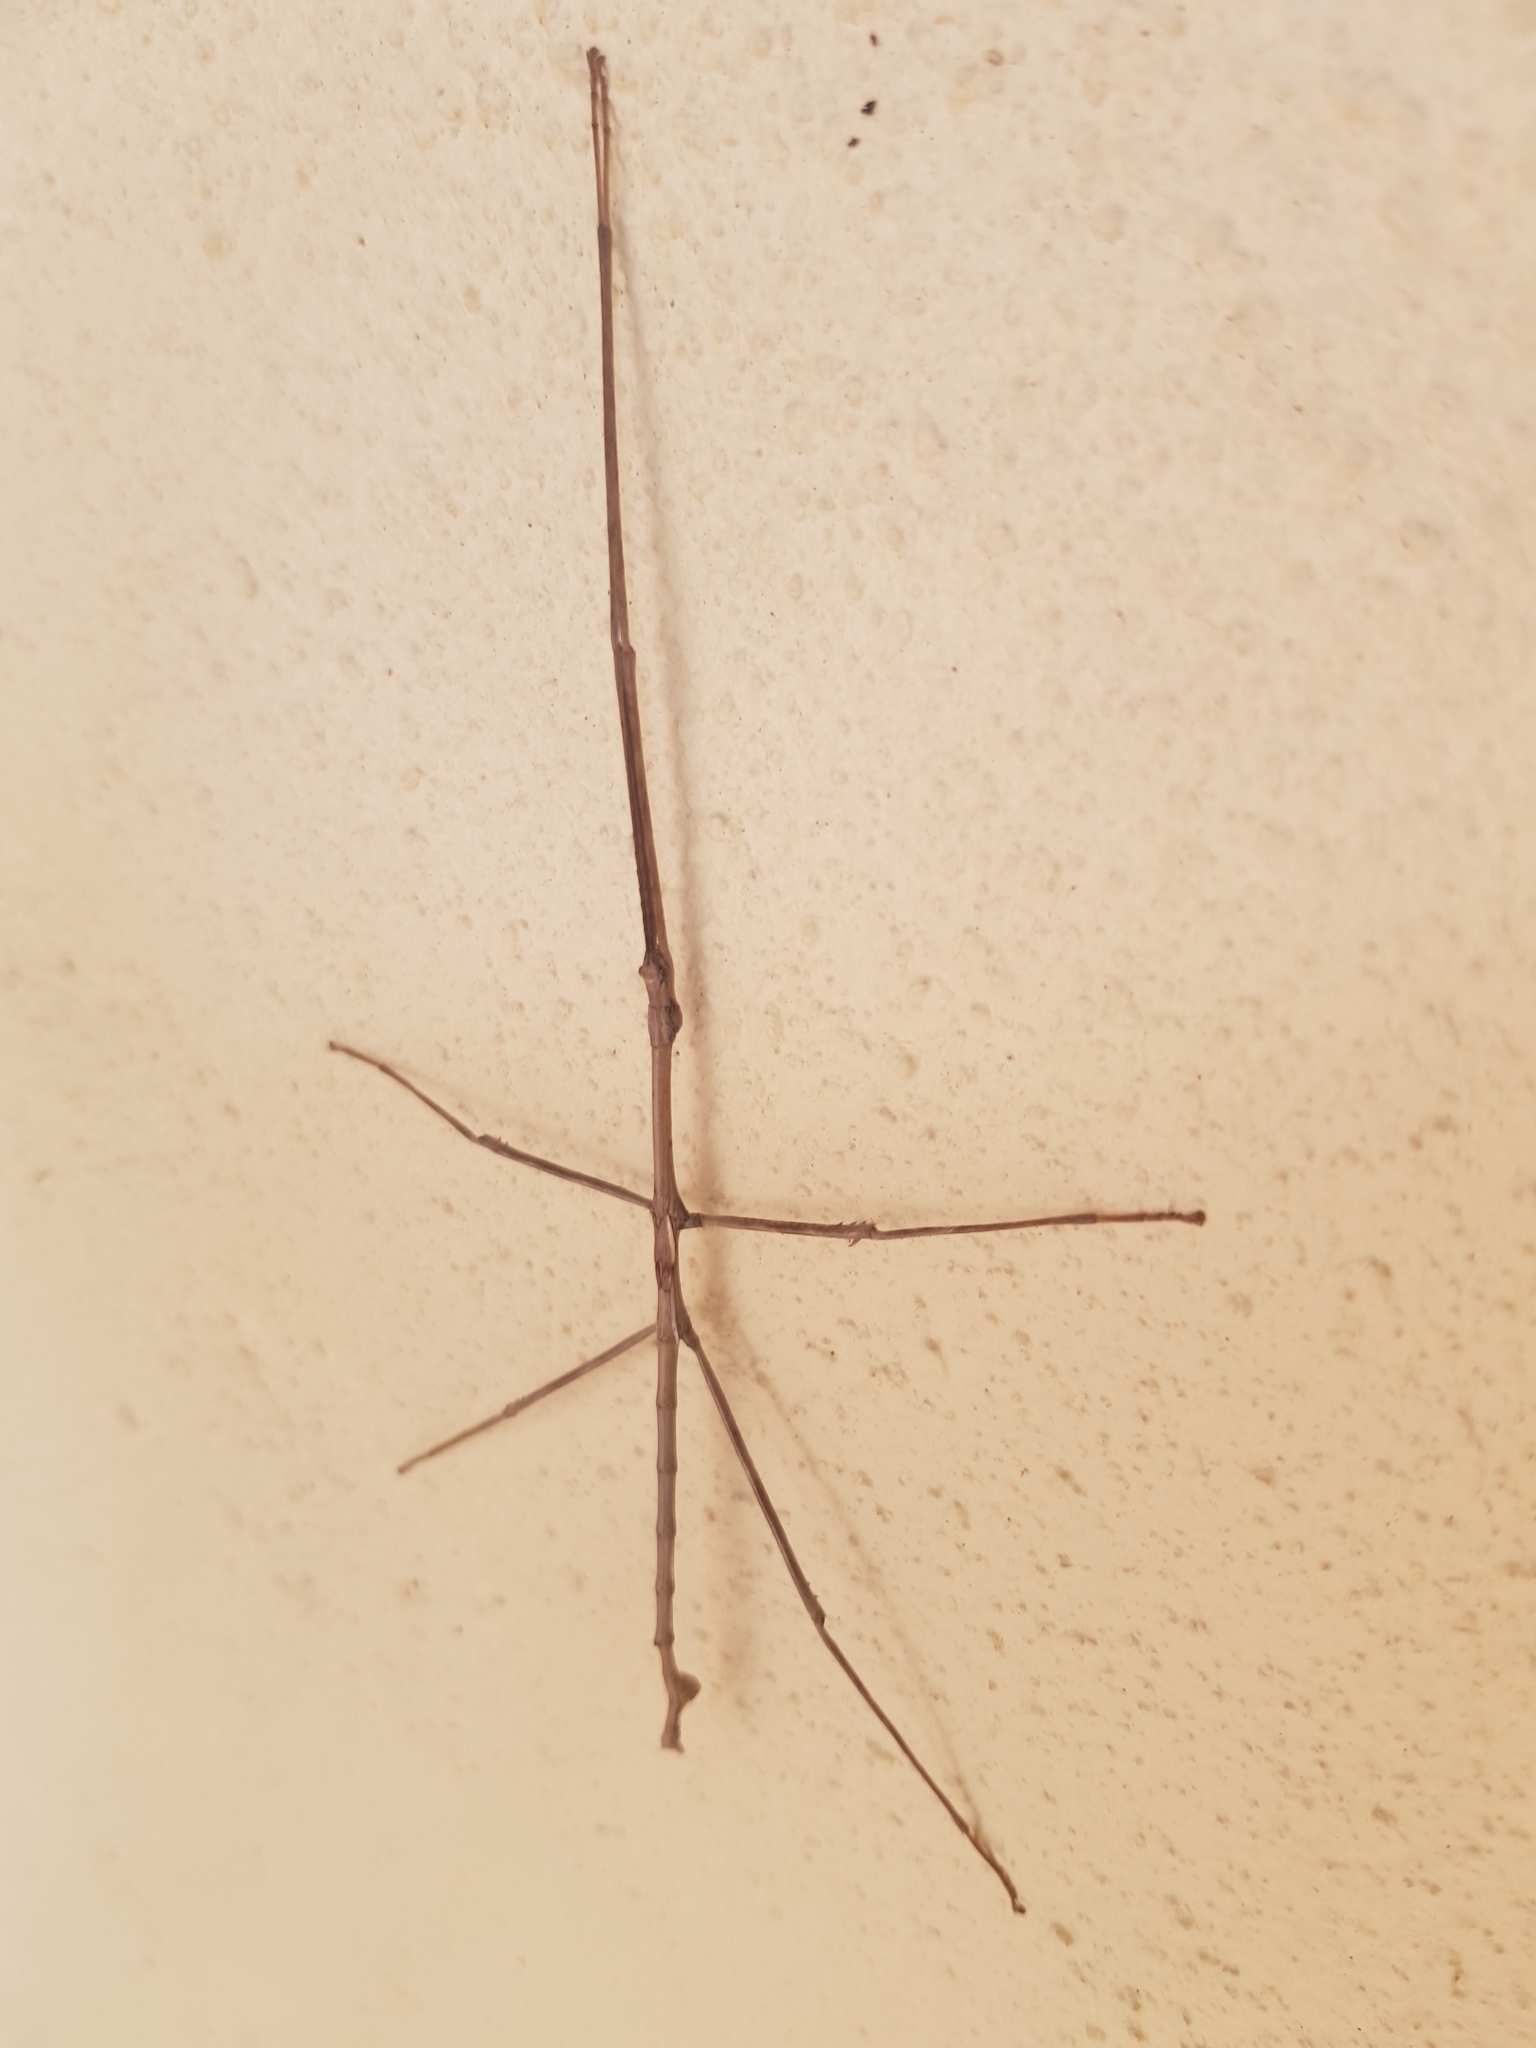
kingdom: Animalia
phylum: Arthropoda
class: Insecta
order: Phasmida
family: Phasmatidae
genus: Anophelepis
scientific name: Anophelepis telesphorus
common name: Short-winged stick-insect
